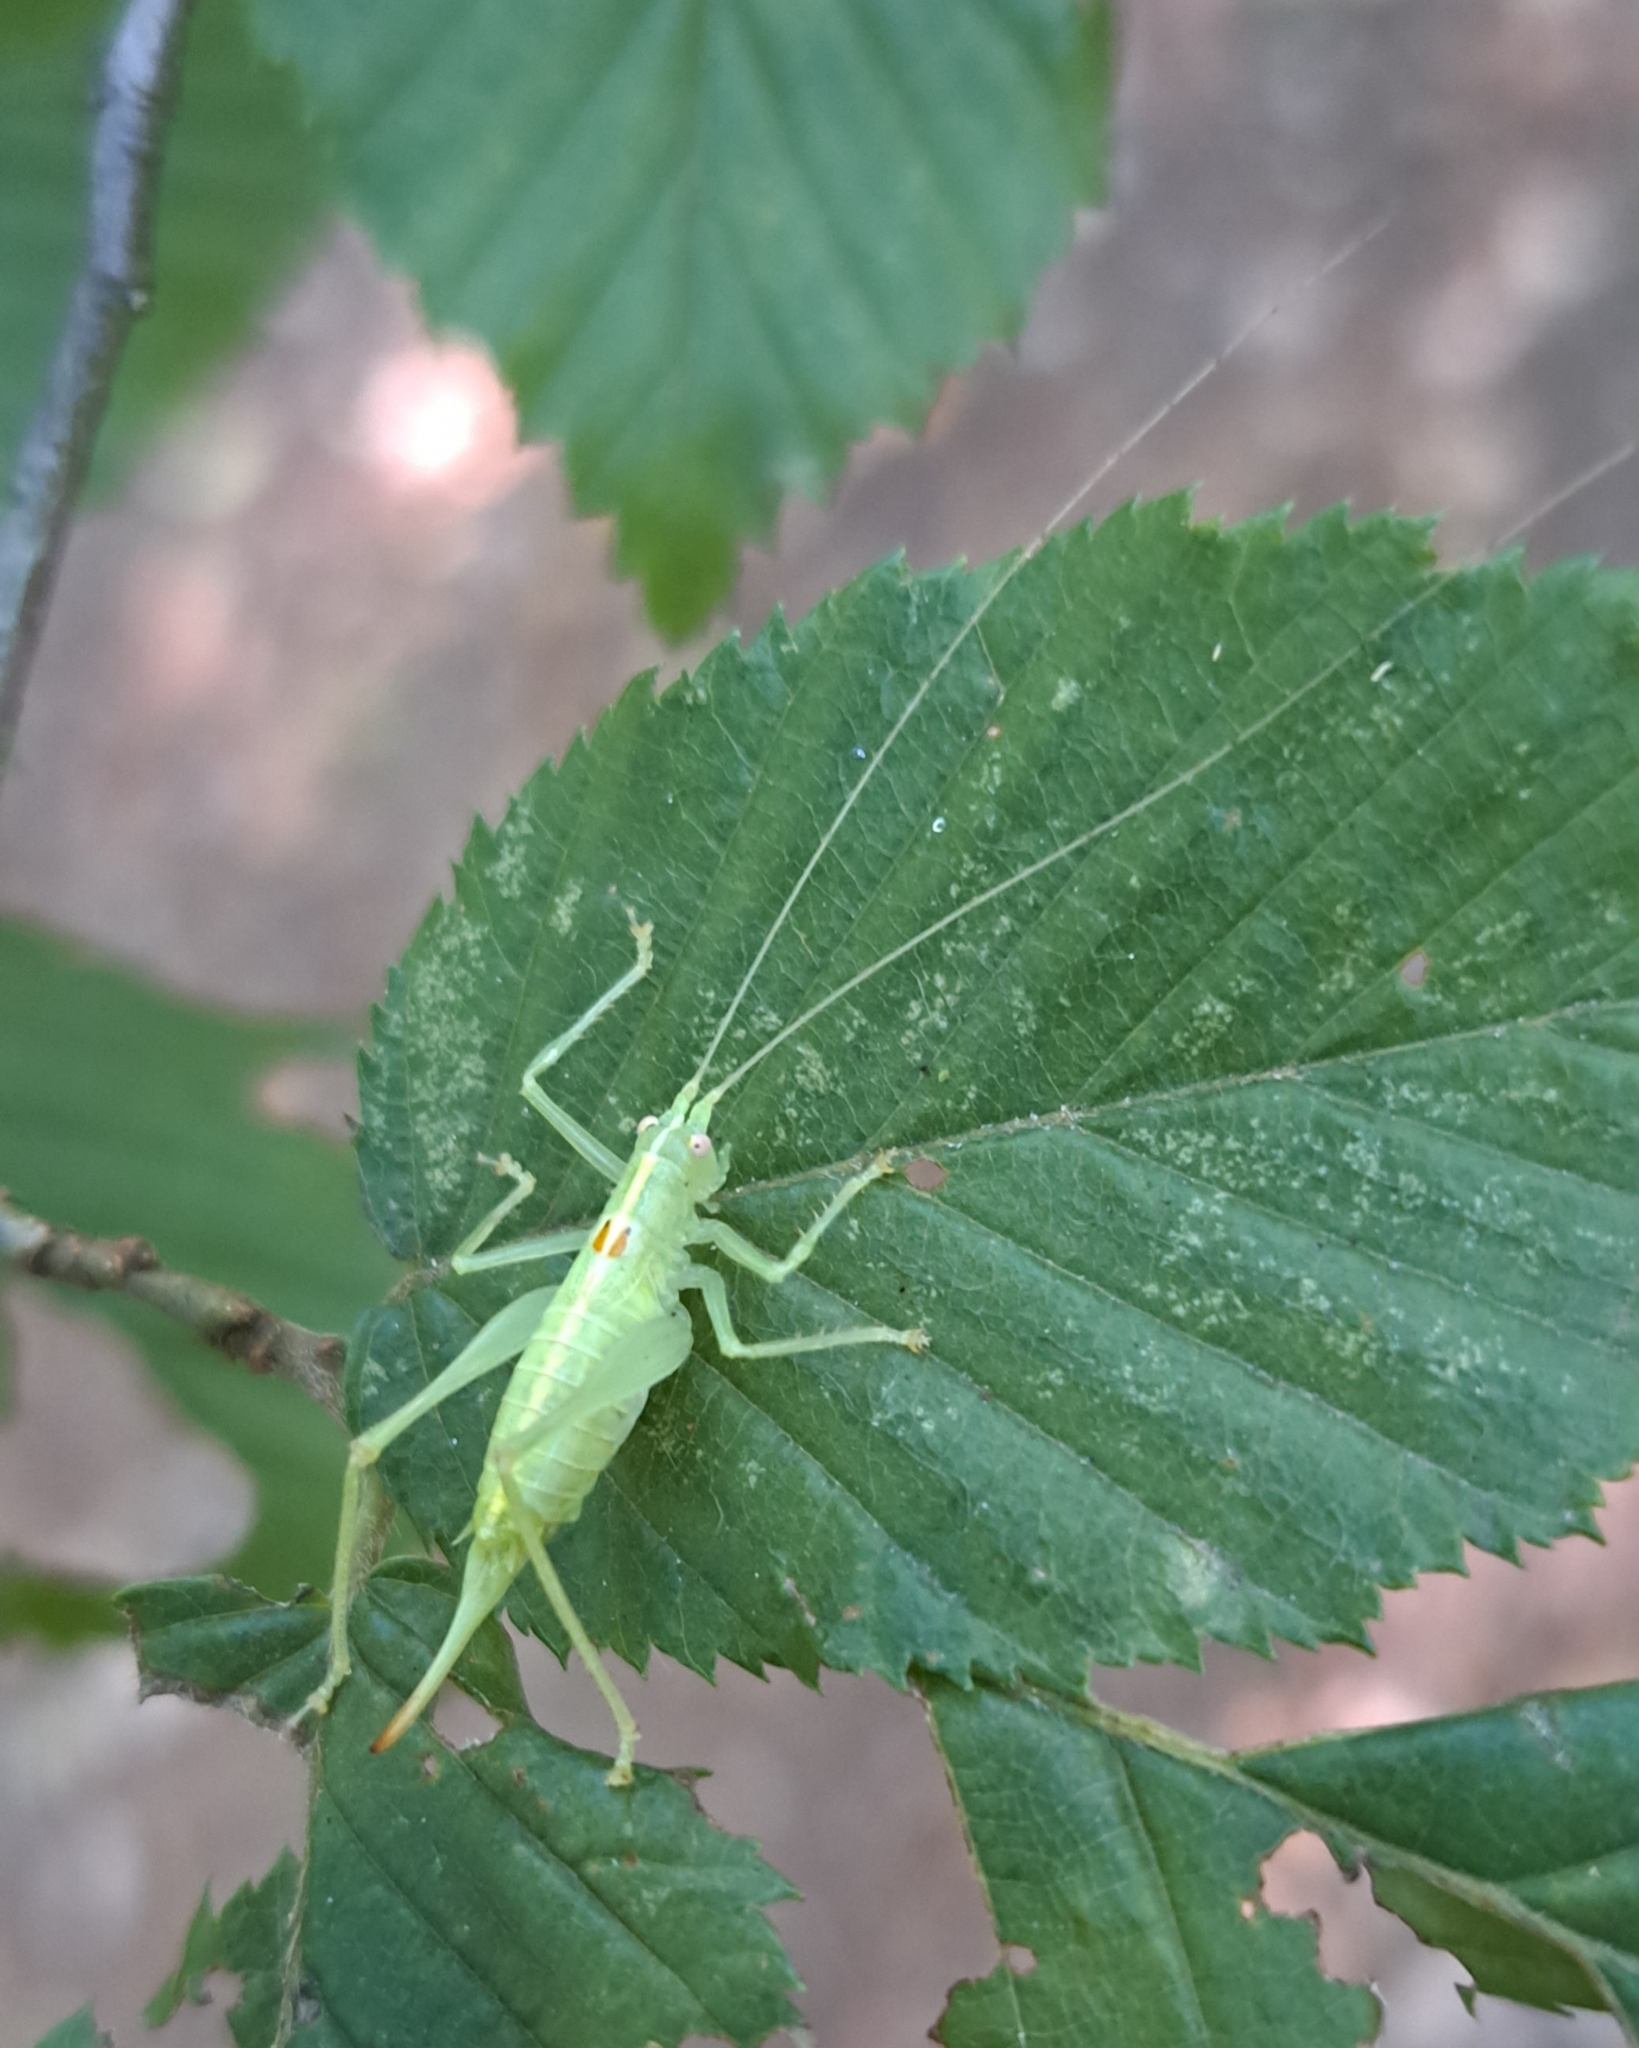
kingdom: Animalia
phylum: Arthropoda
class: Insecta
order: Orthoptera
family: Tettigoniidae
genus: Meconema
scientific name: Meconema meridionale
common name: Southern oak bush-cricket
